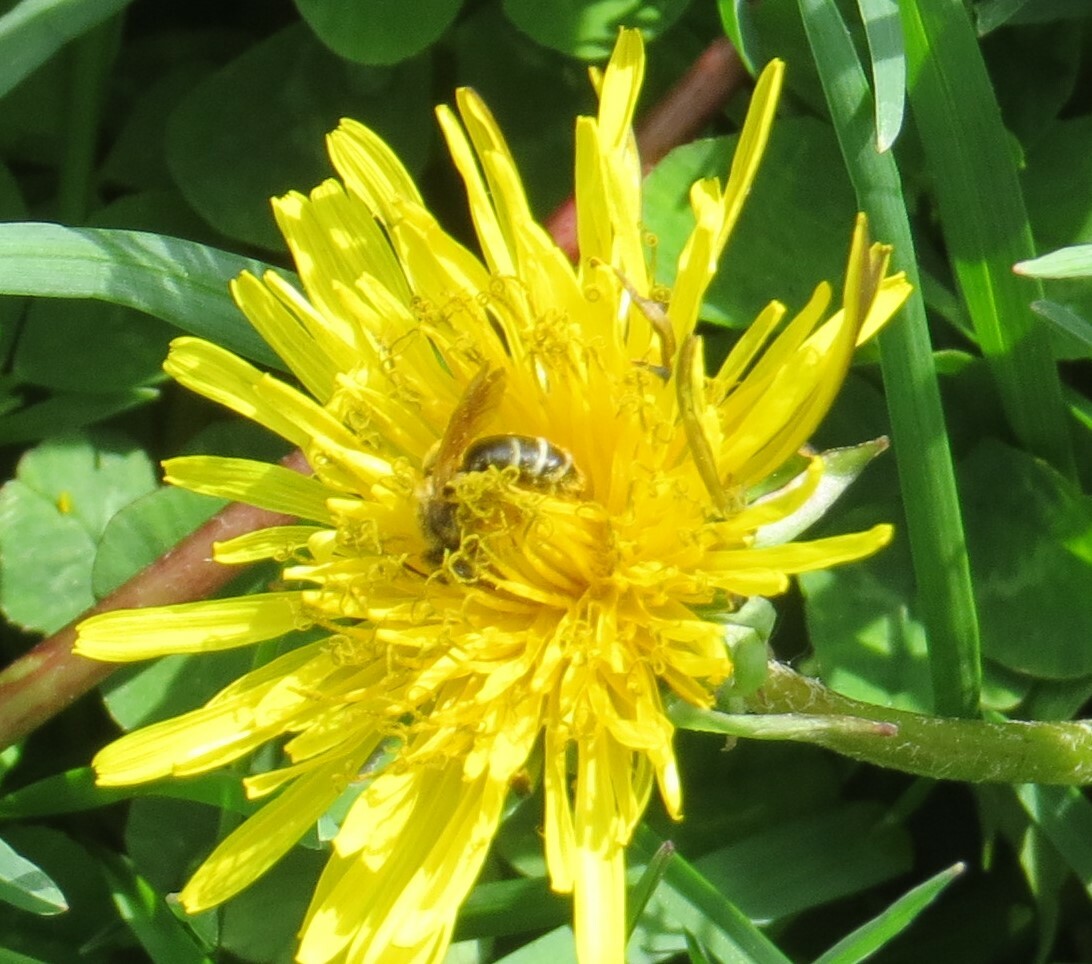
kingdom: Animalia
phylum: Arthropoda
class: Insecta
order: Hymenoptera
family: Apidae
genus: Apis
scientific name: Apis mellifera
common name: Honey bee
